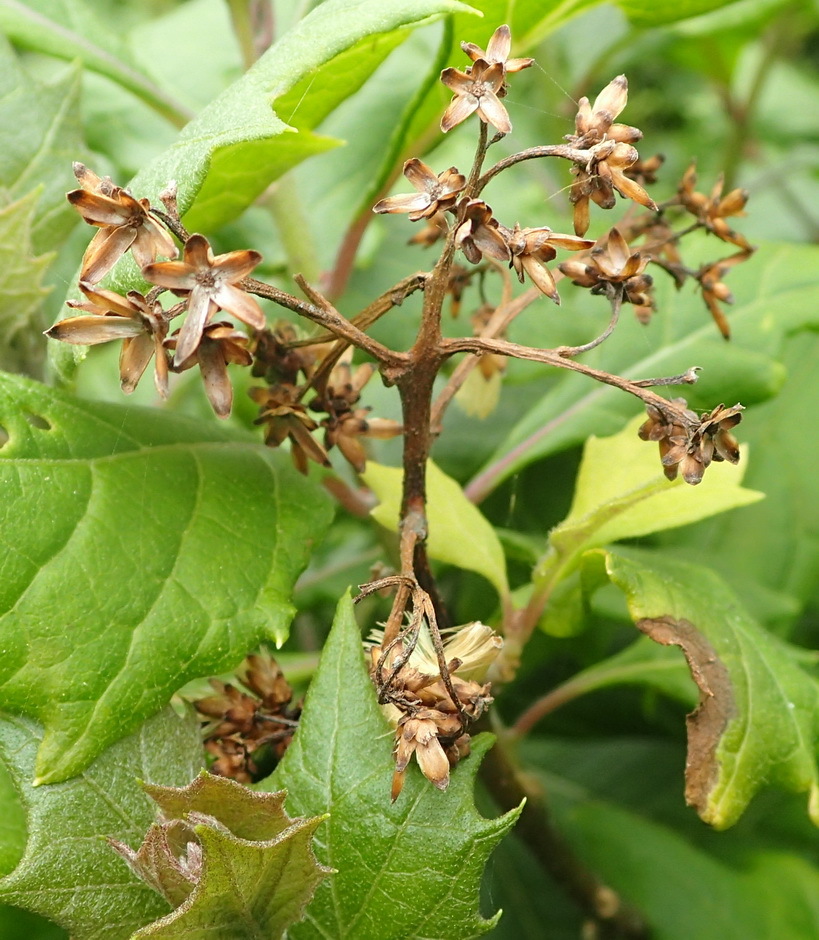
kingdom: Plantae
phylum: Tracheophyta
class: Magnoliopsida
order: Asterales
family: Asteraceae
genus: Gymnanthemum
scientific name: Gymnanthemum capense
